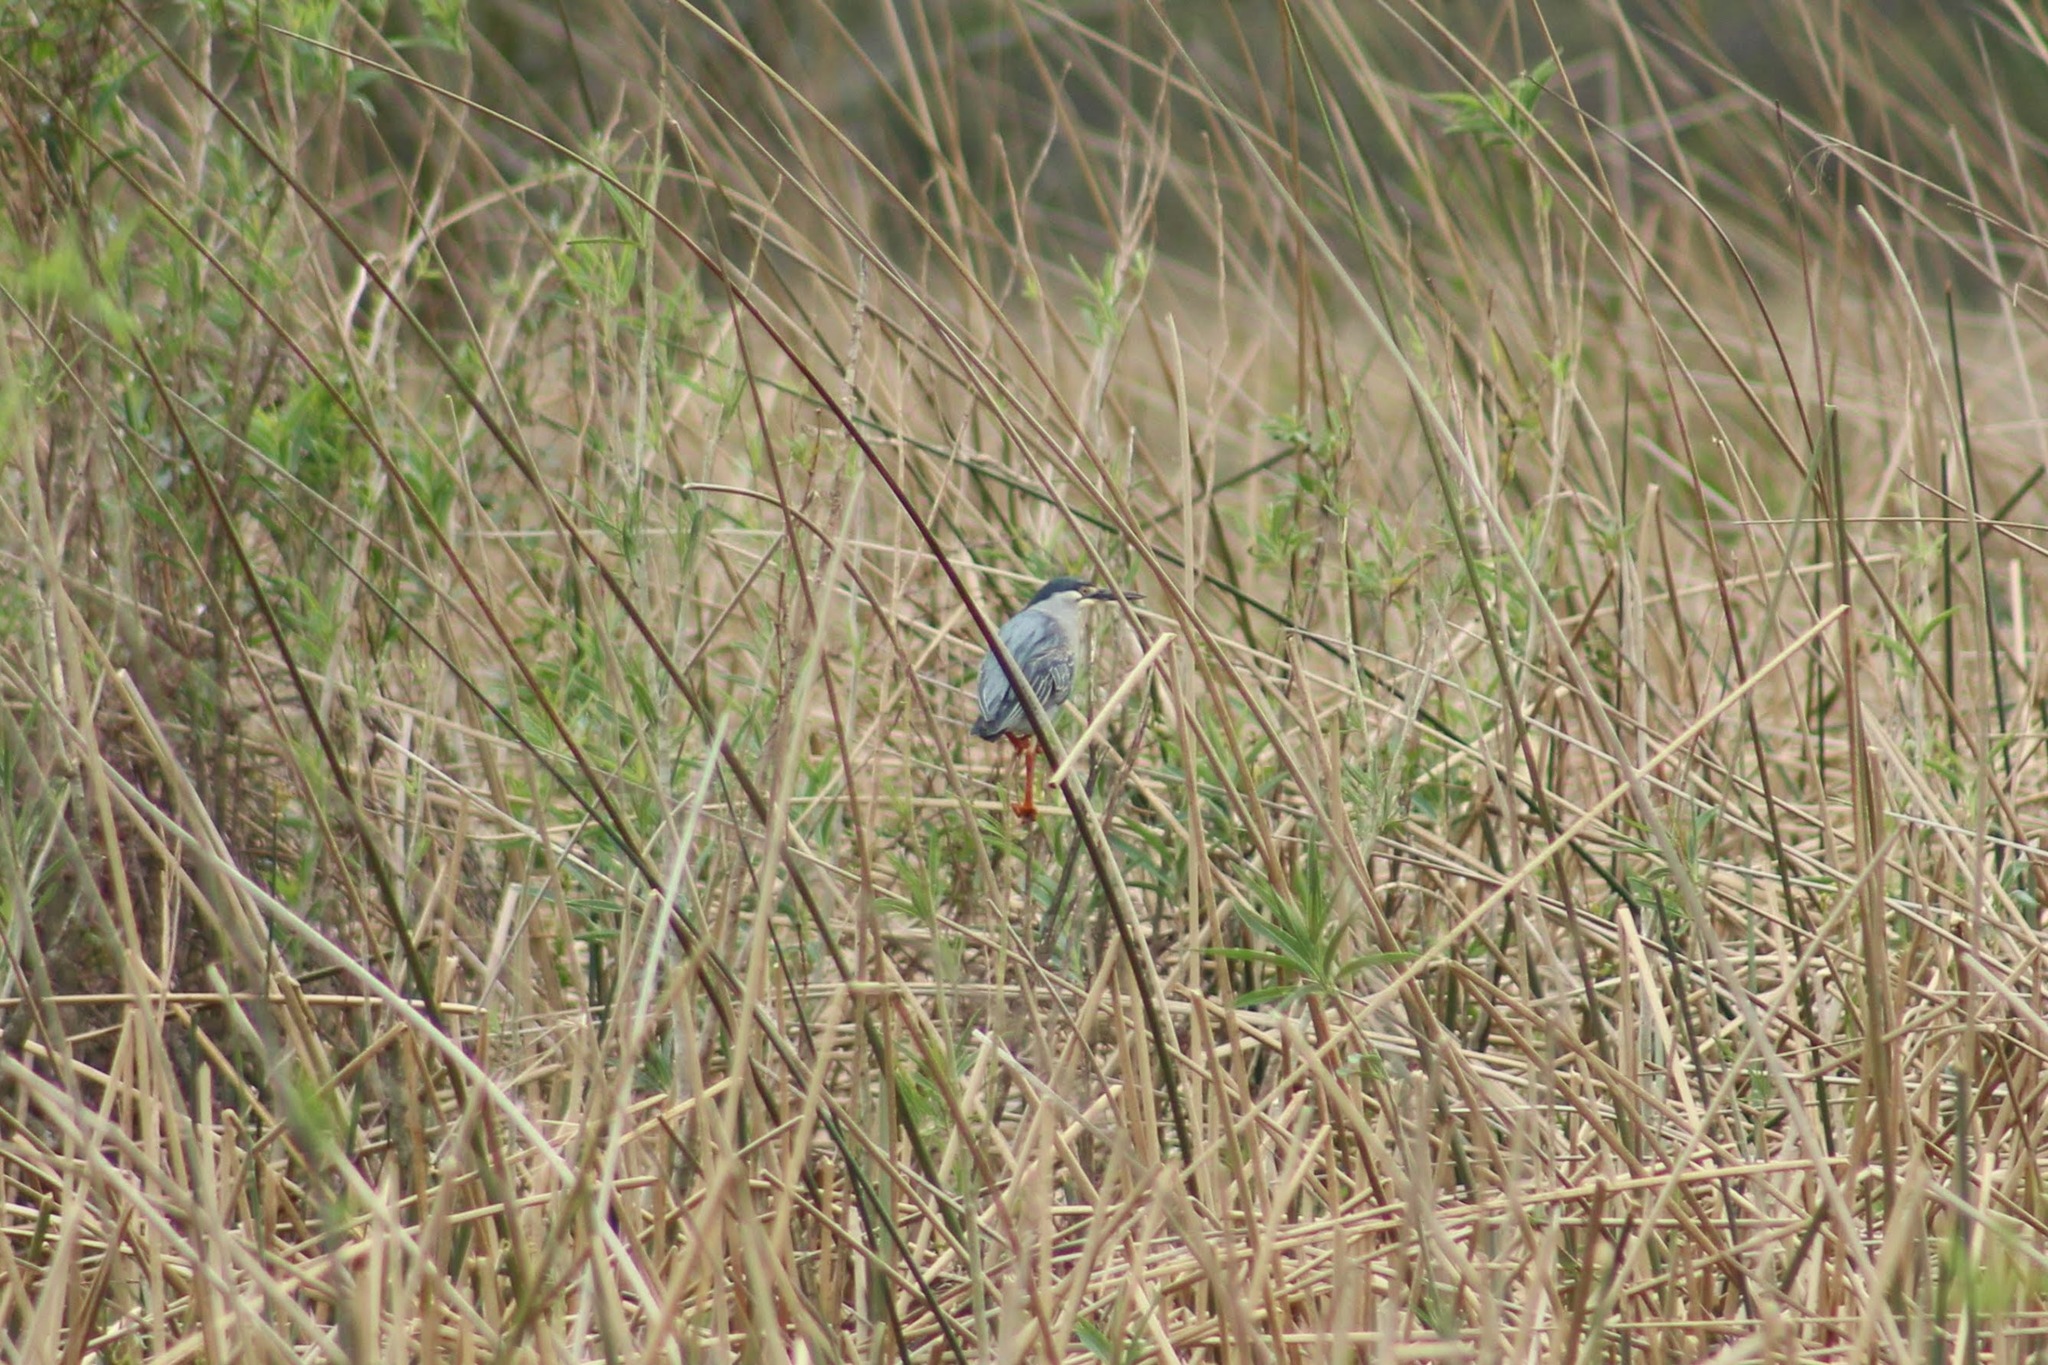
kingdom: Animalia
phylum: Chordata
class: Aves
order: Pelecaniformes
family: Ardeidae
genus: Butorides
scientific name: Butorides striata
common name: Striated heron
